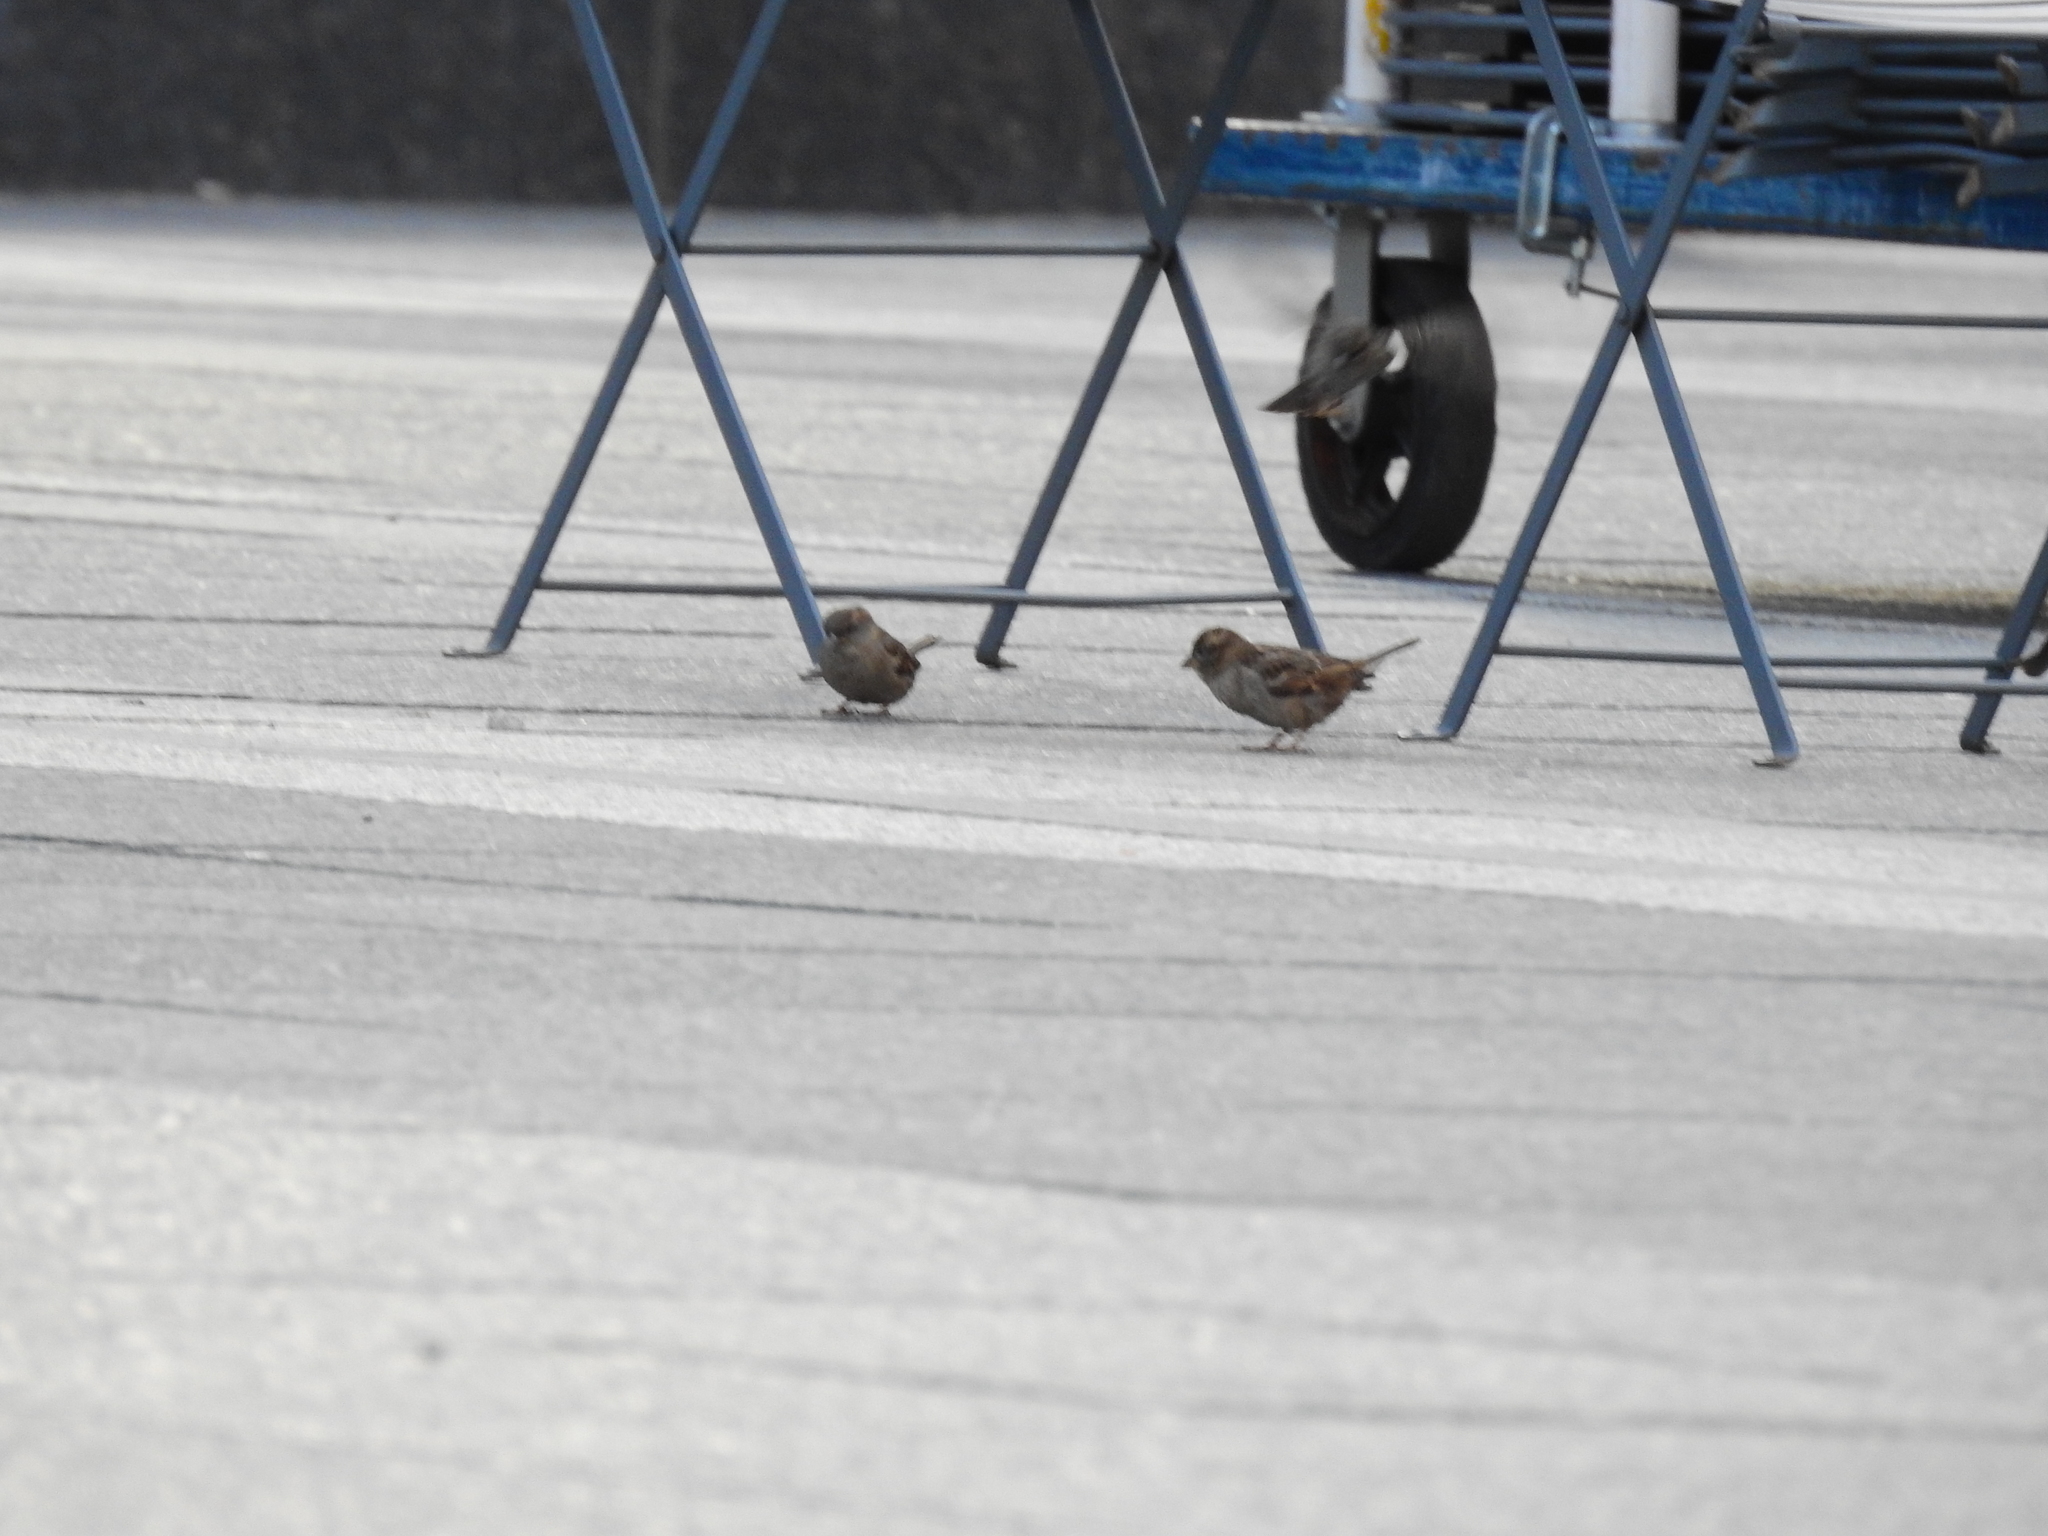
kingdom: Animalia
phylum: Chordata
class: Aves
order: Passeriformes
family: Passeridae
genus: Passer
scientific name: Passer domesticus
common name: House sparrow
